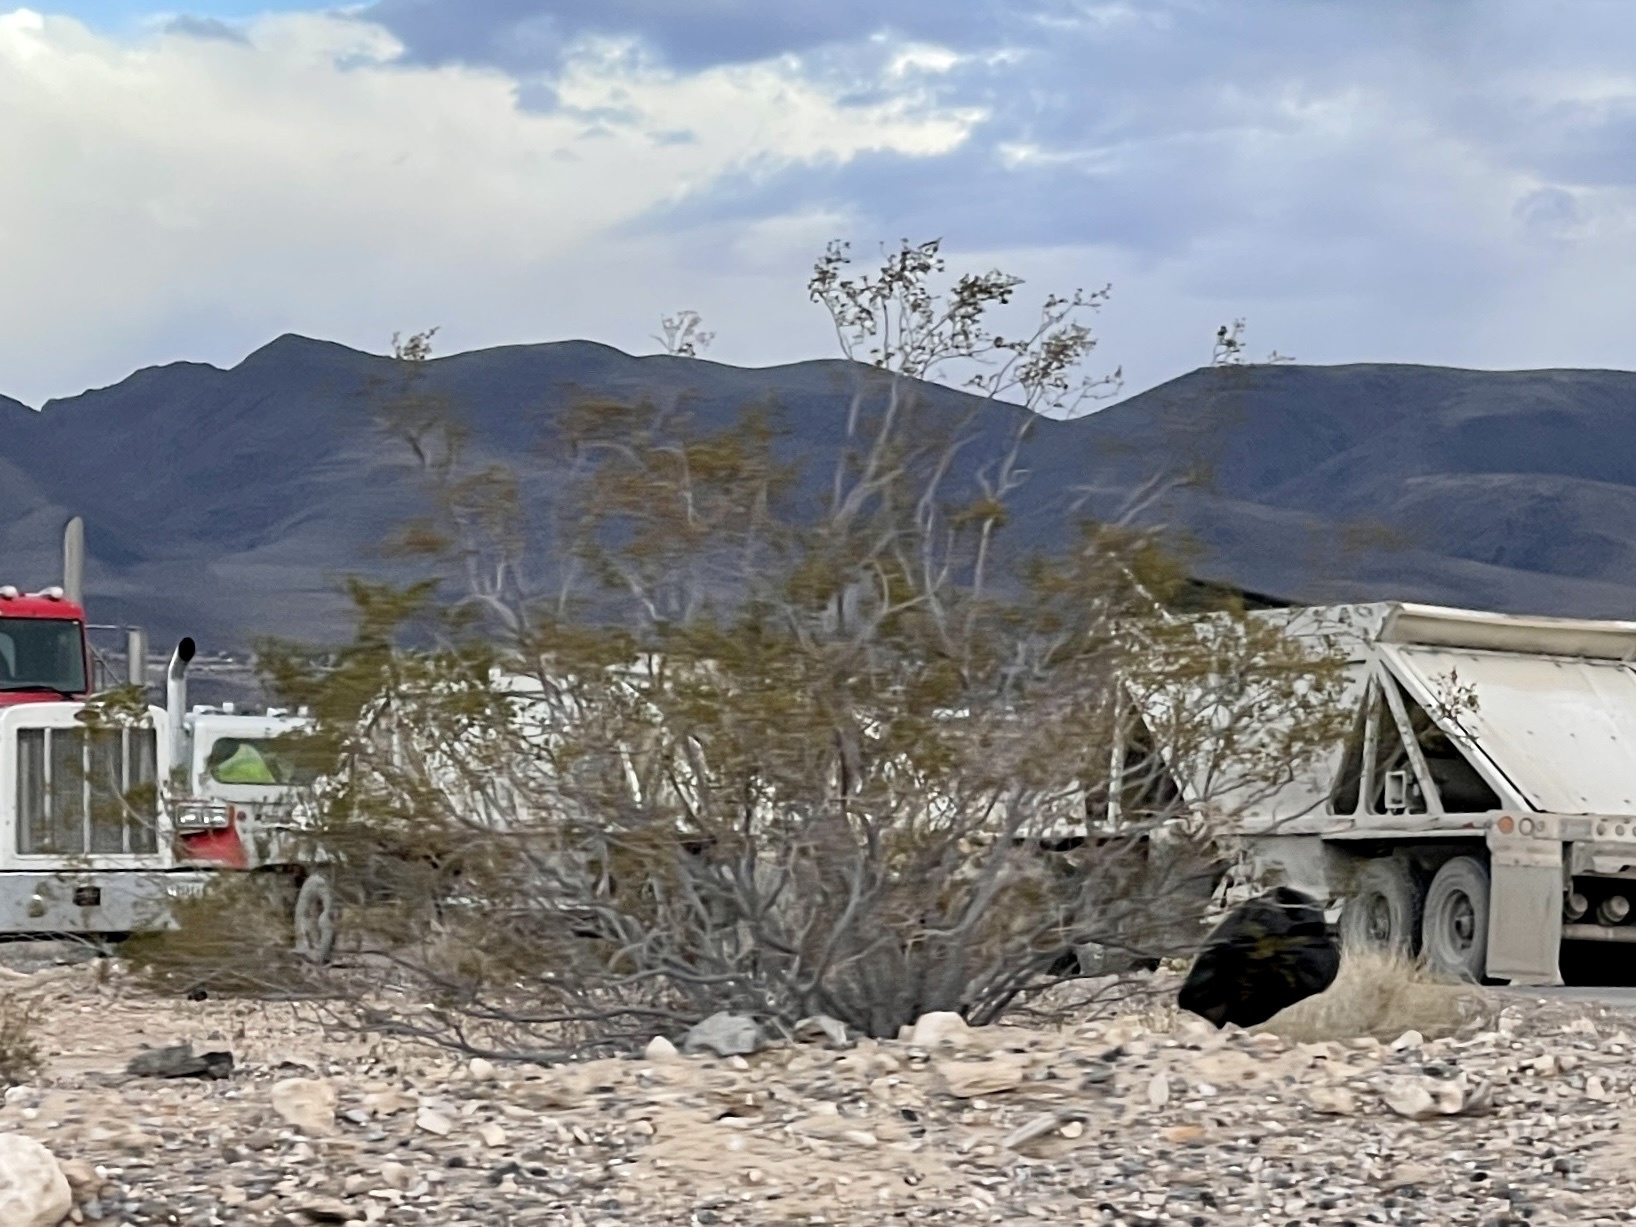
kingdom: Plantae
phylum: Tracheophyta
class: Magnoliopsida
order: Zygophyllales
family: Zygophyllaceae
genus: Larrea
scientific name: Larrea tridentata
